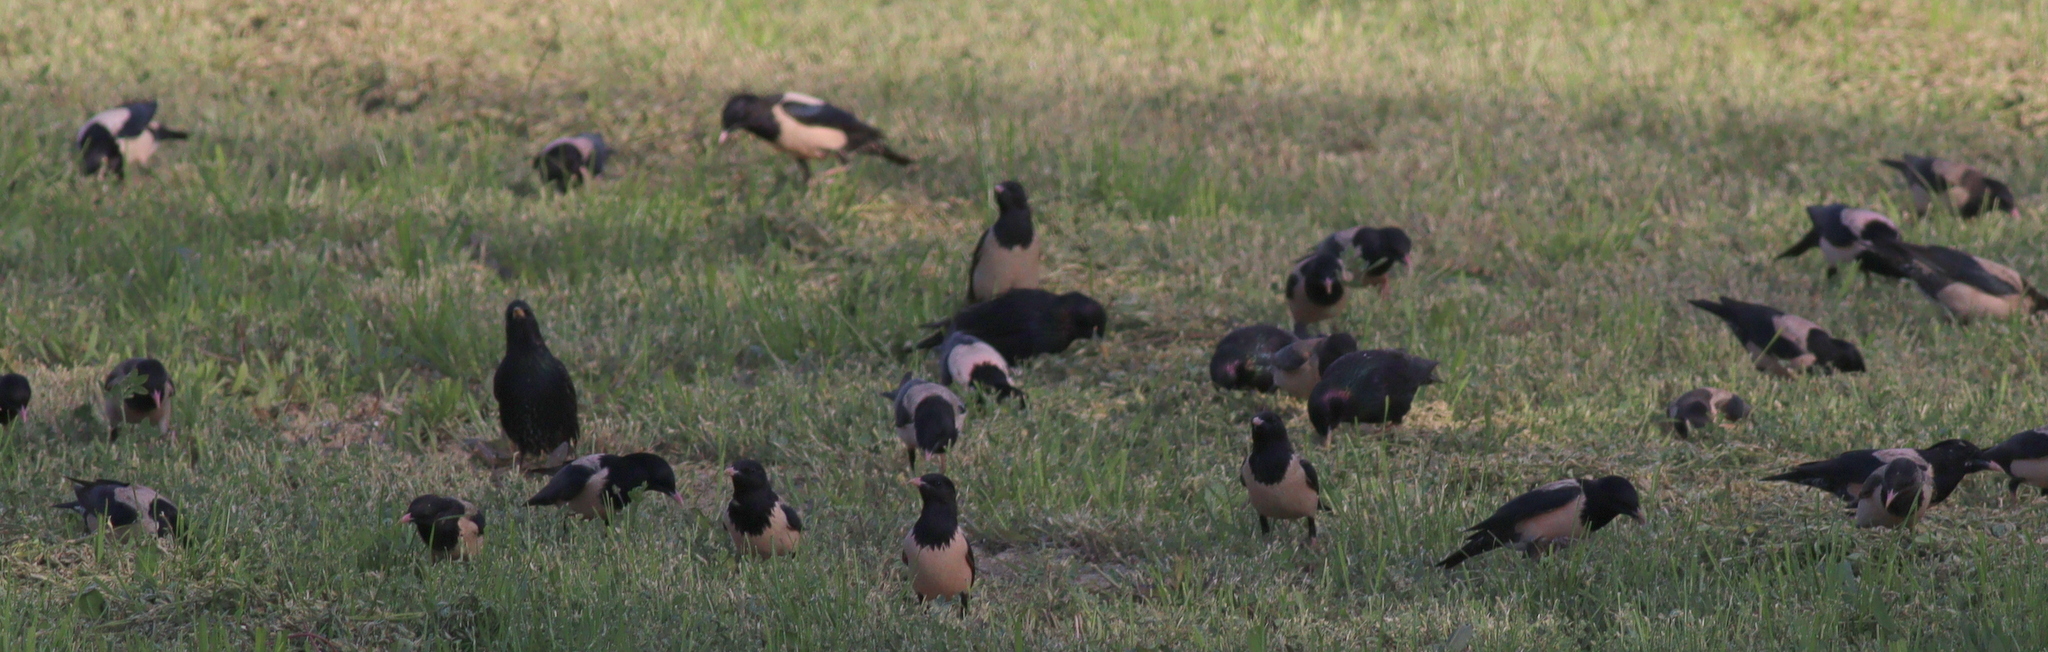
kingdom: Animalia
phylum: Chordata
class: Aves
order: Passeriformes
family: Sturnidae
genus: Pastor
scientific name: Pastor roseus
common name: Rosy starling
